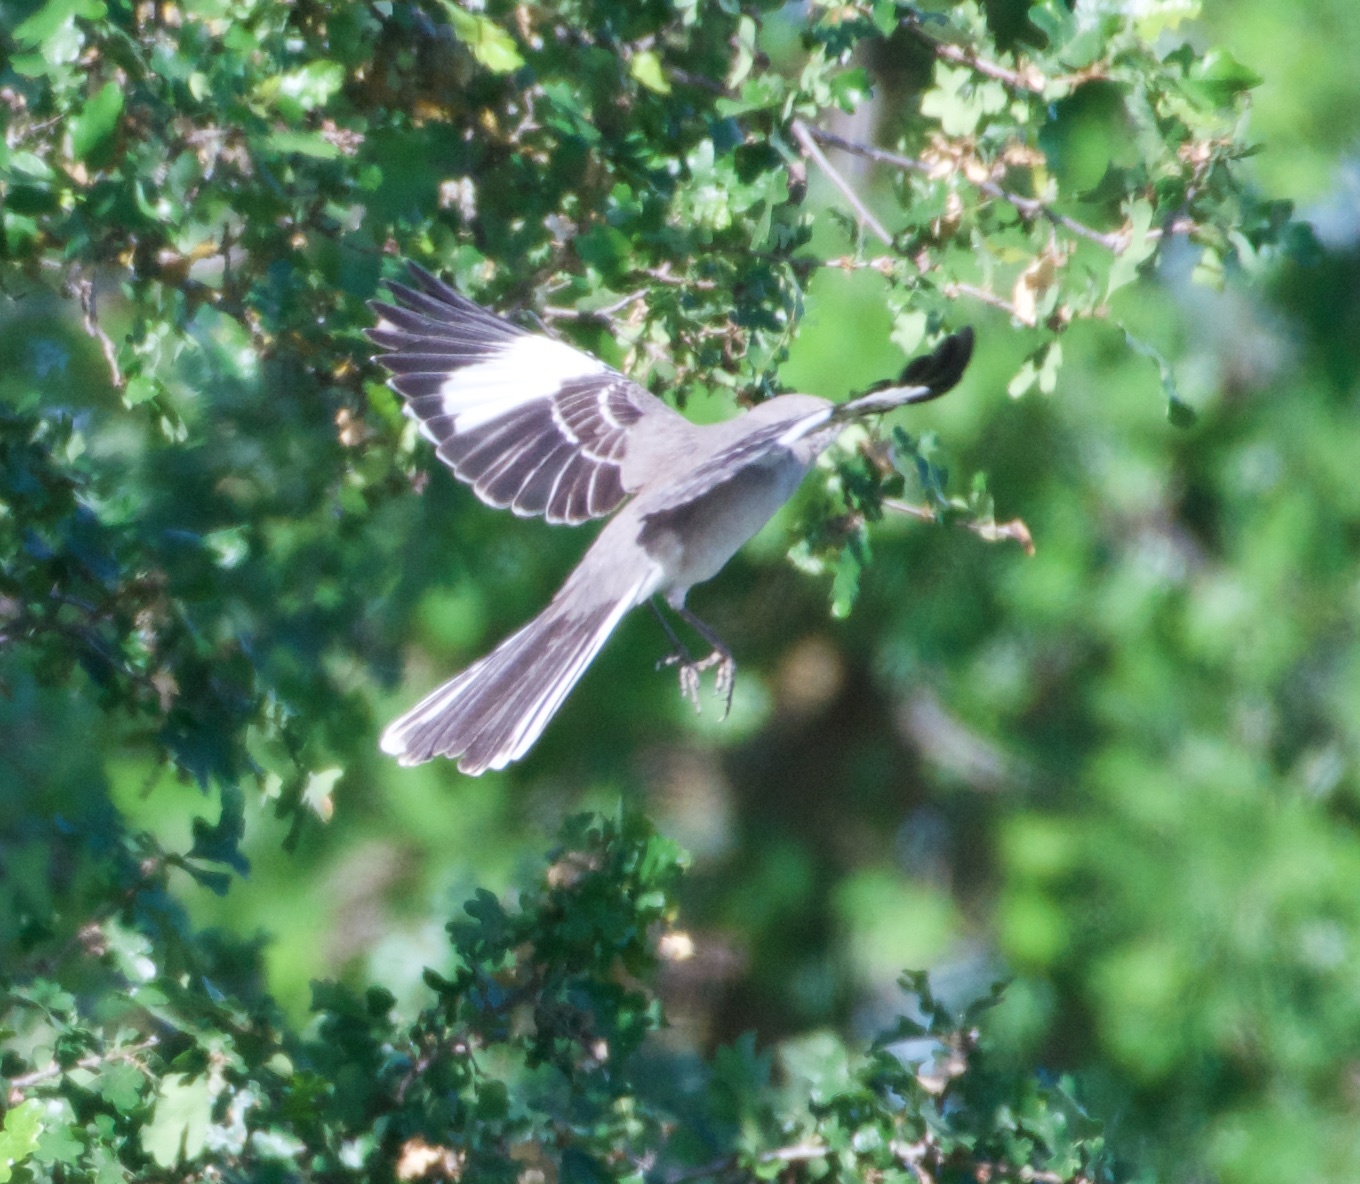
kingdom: Animalia
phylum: Chordata
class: Aves
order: Passeriformes
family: Mimidae
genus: Mimus
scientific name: Mimus polyglottos
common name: Northern mockingbird
